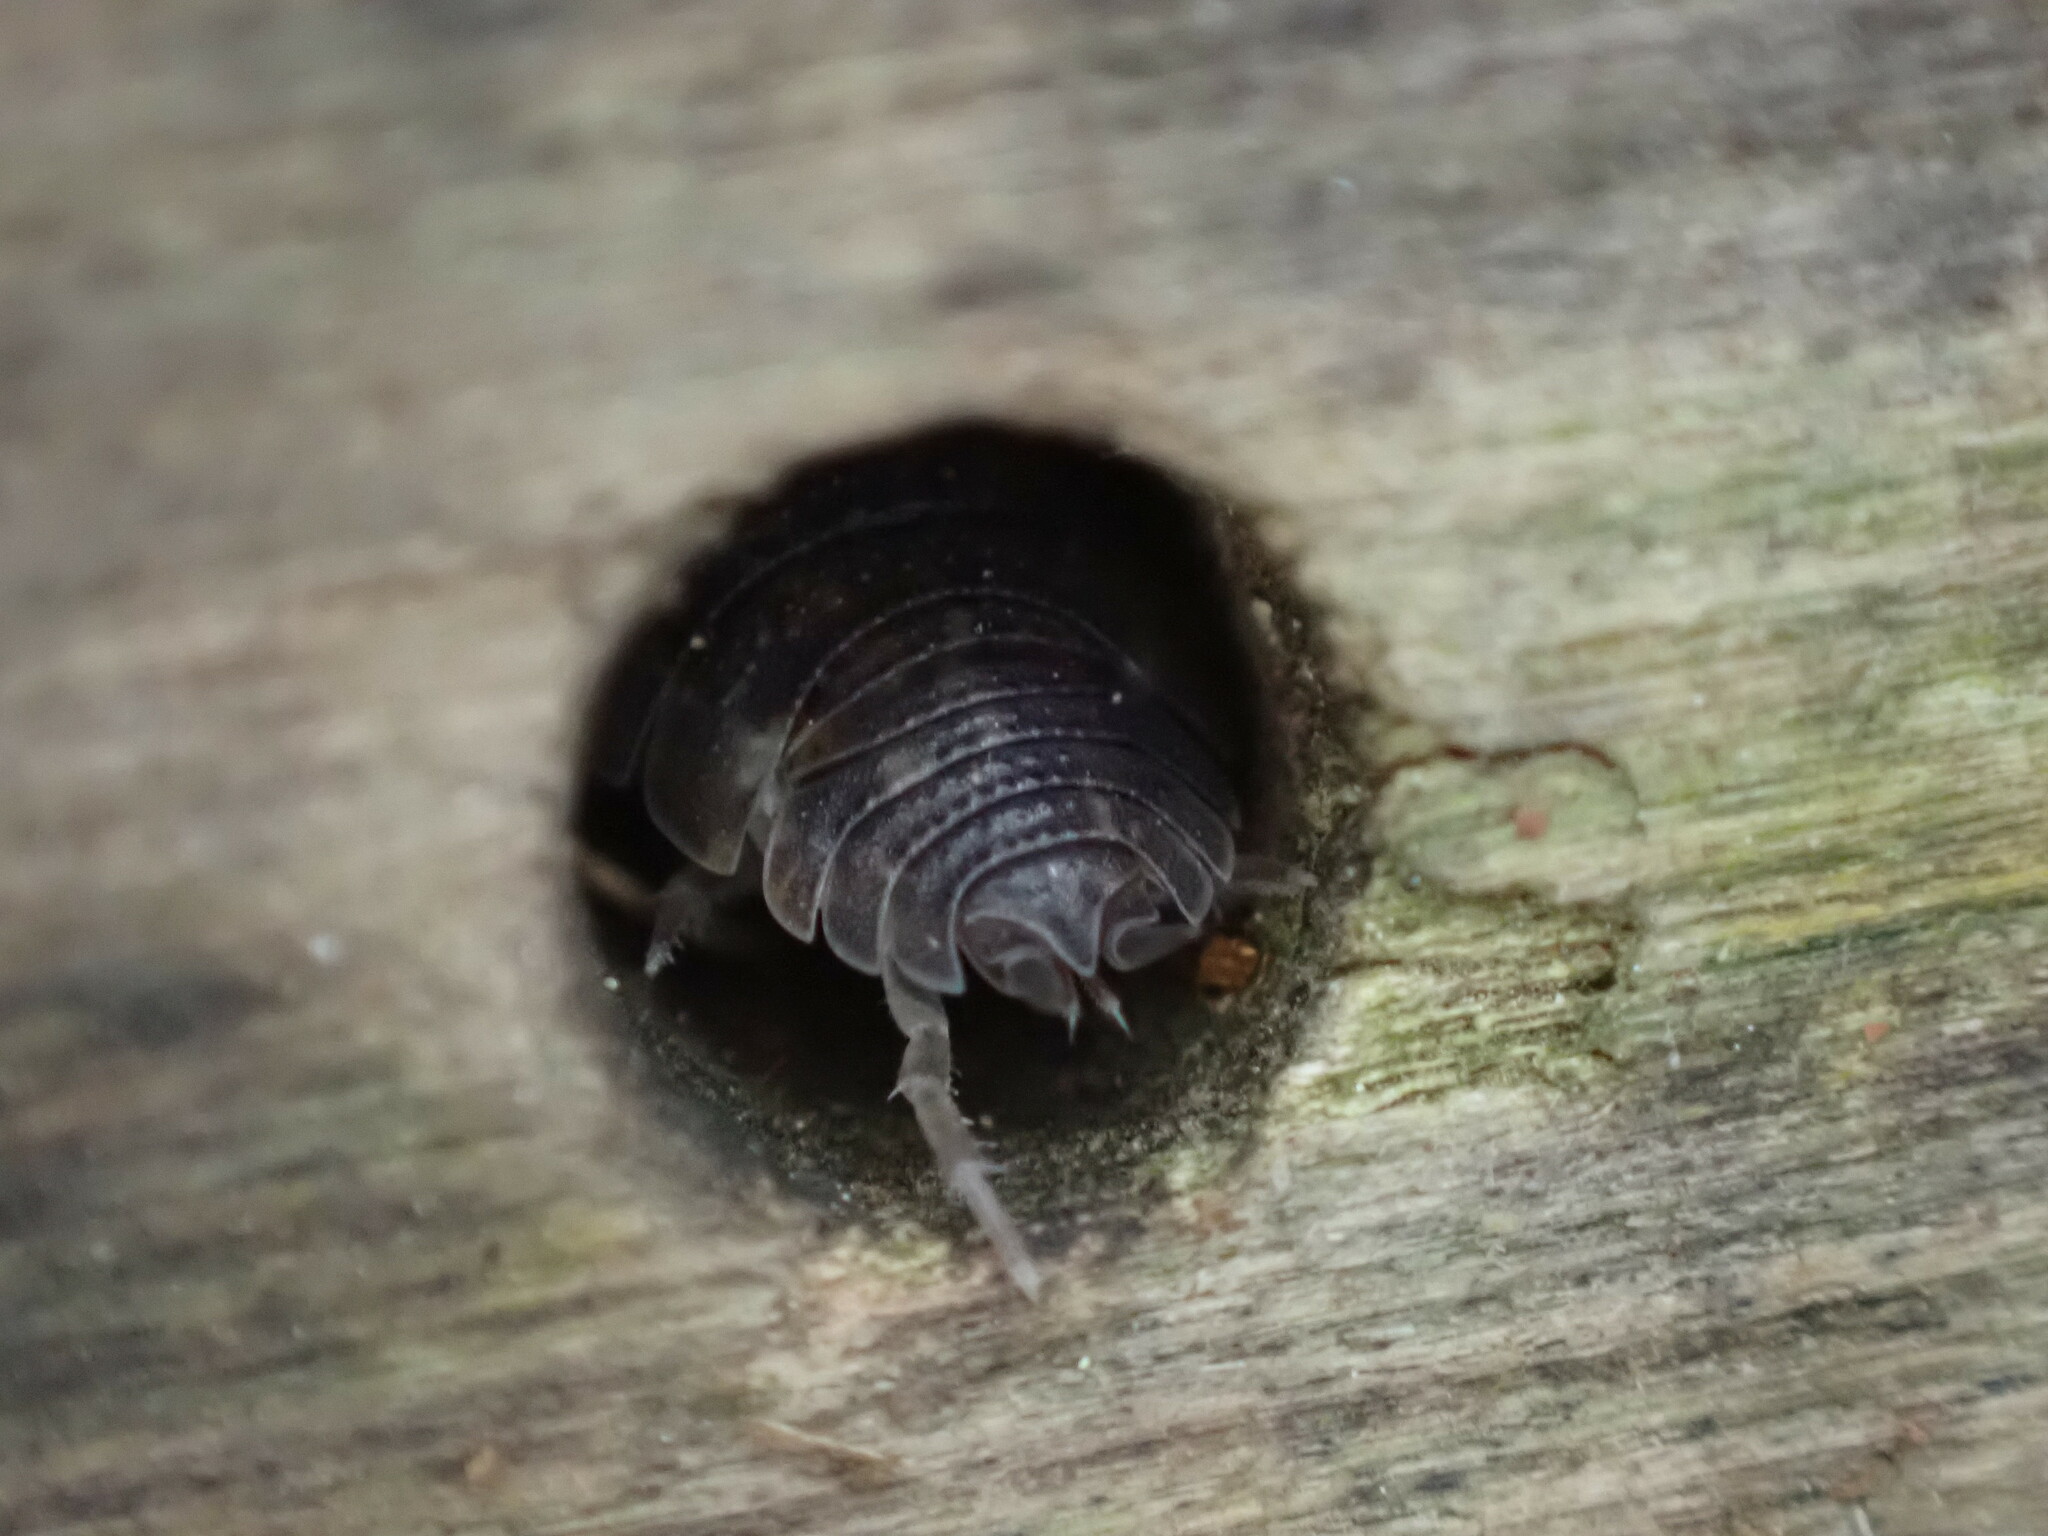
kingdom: Animalia
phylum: Arthropoda
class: Malacostraca
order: Isopoda
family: Porcellionidae
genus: Porcellio
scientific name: Porcellio scaber
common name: Common rough woodlouse
